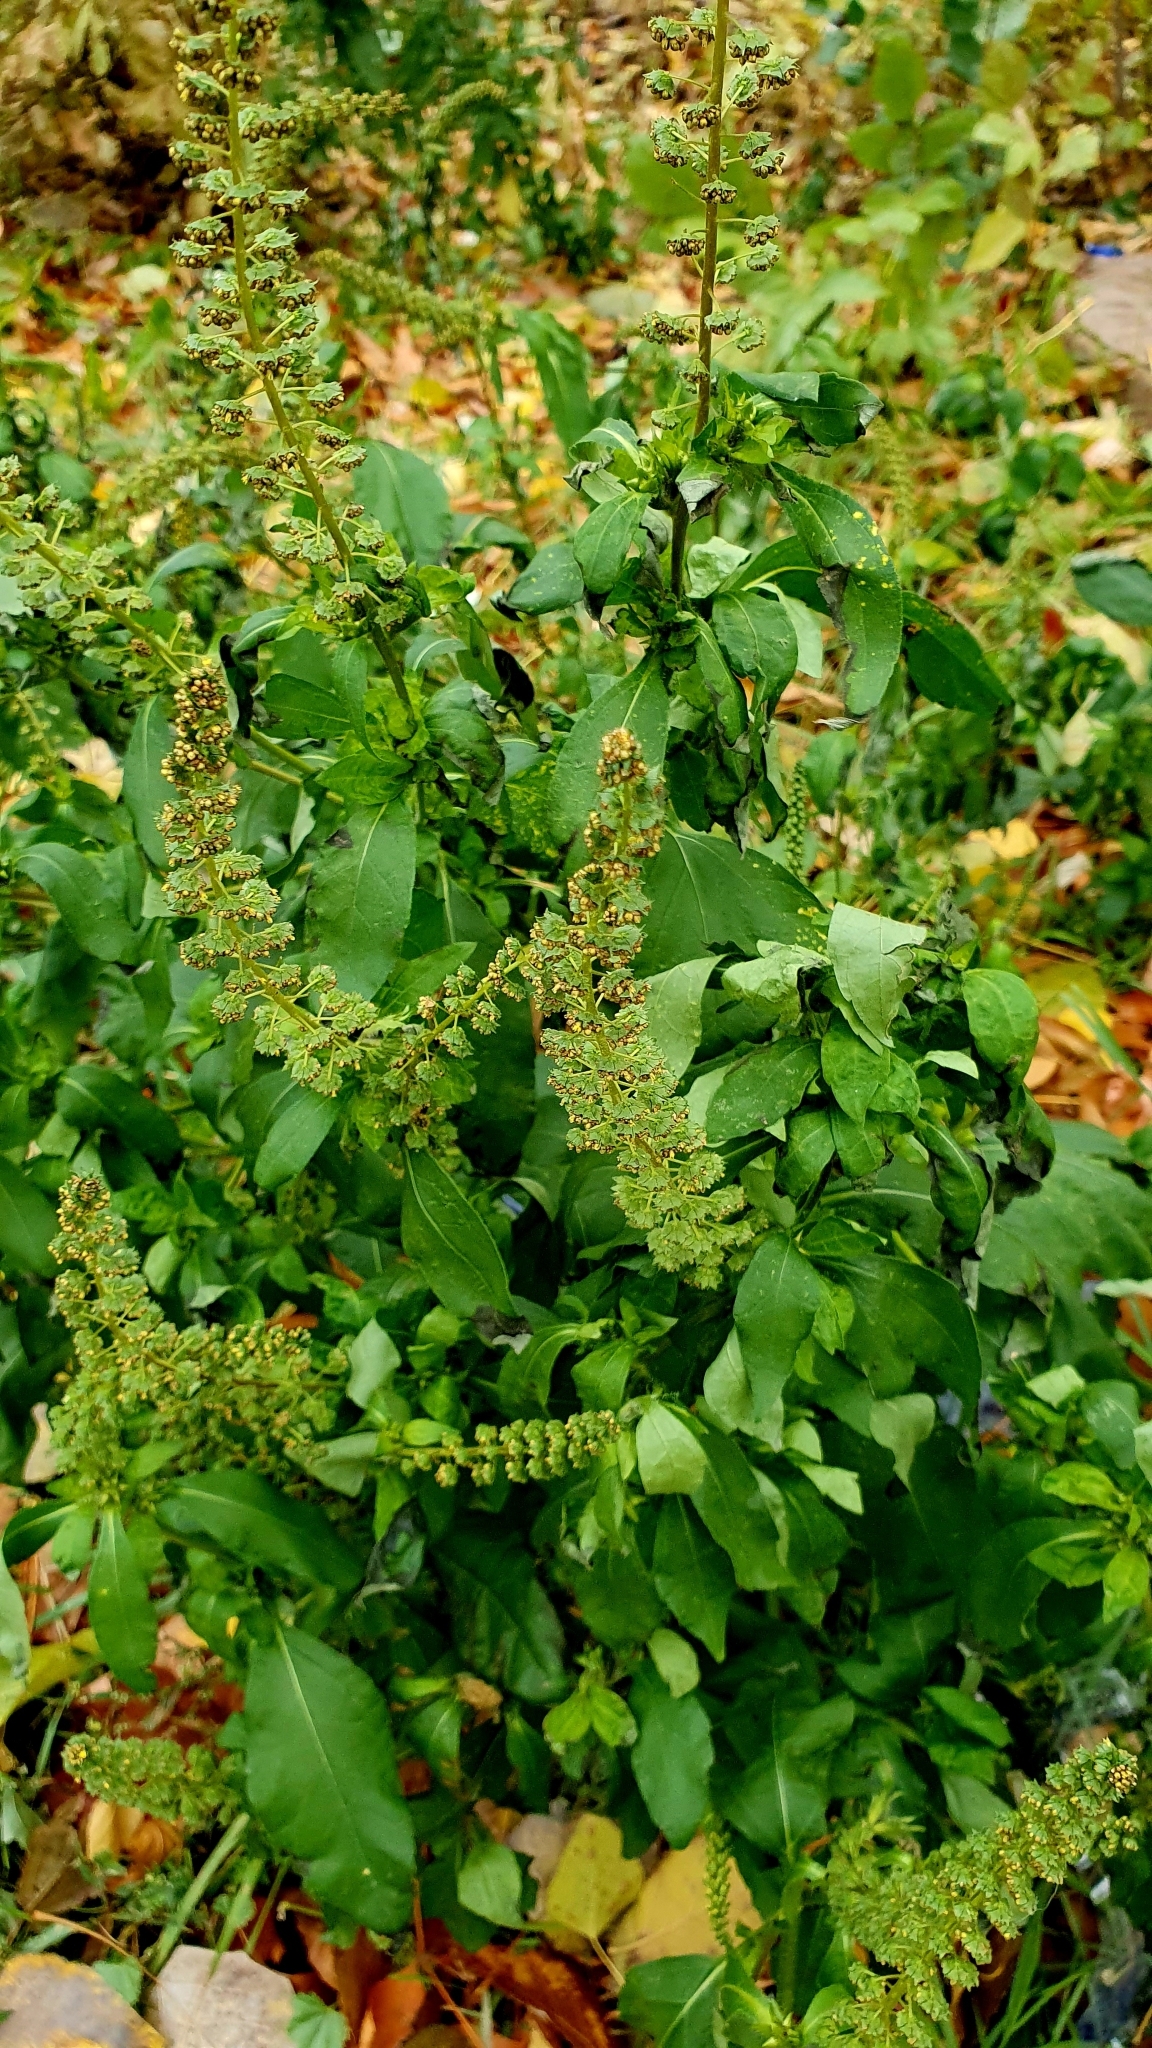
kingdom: Plantae
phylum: Tracheophyta
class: Magnoliopsida
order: Asterales
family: Asteraceae
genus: Ambrosia
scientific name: Ambrosia trifida
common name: Giant ragweed
